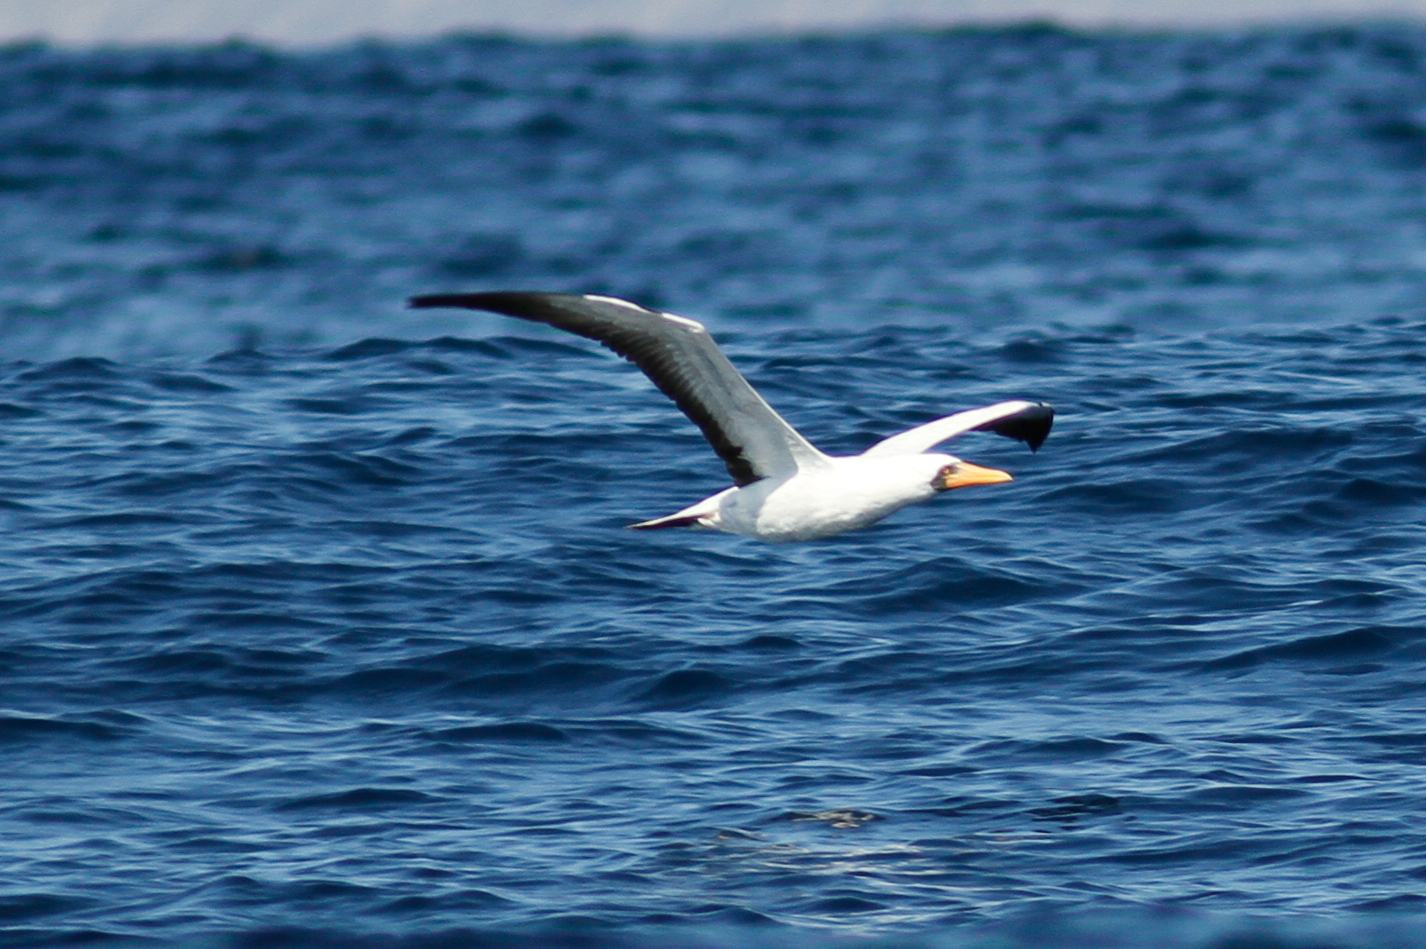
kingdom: Animalia
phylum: Chordata
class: Aves
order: Suliformes
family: Sulidae
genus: Sula
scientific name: Sula granti
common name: Nazca booby
